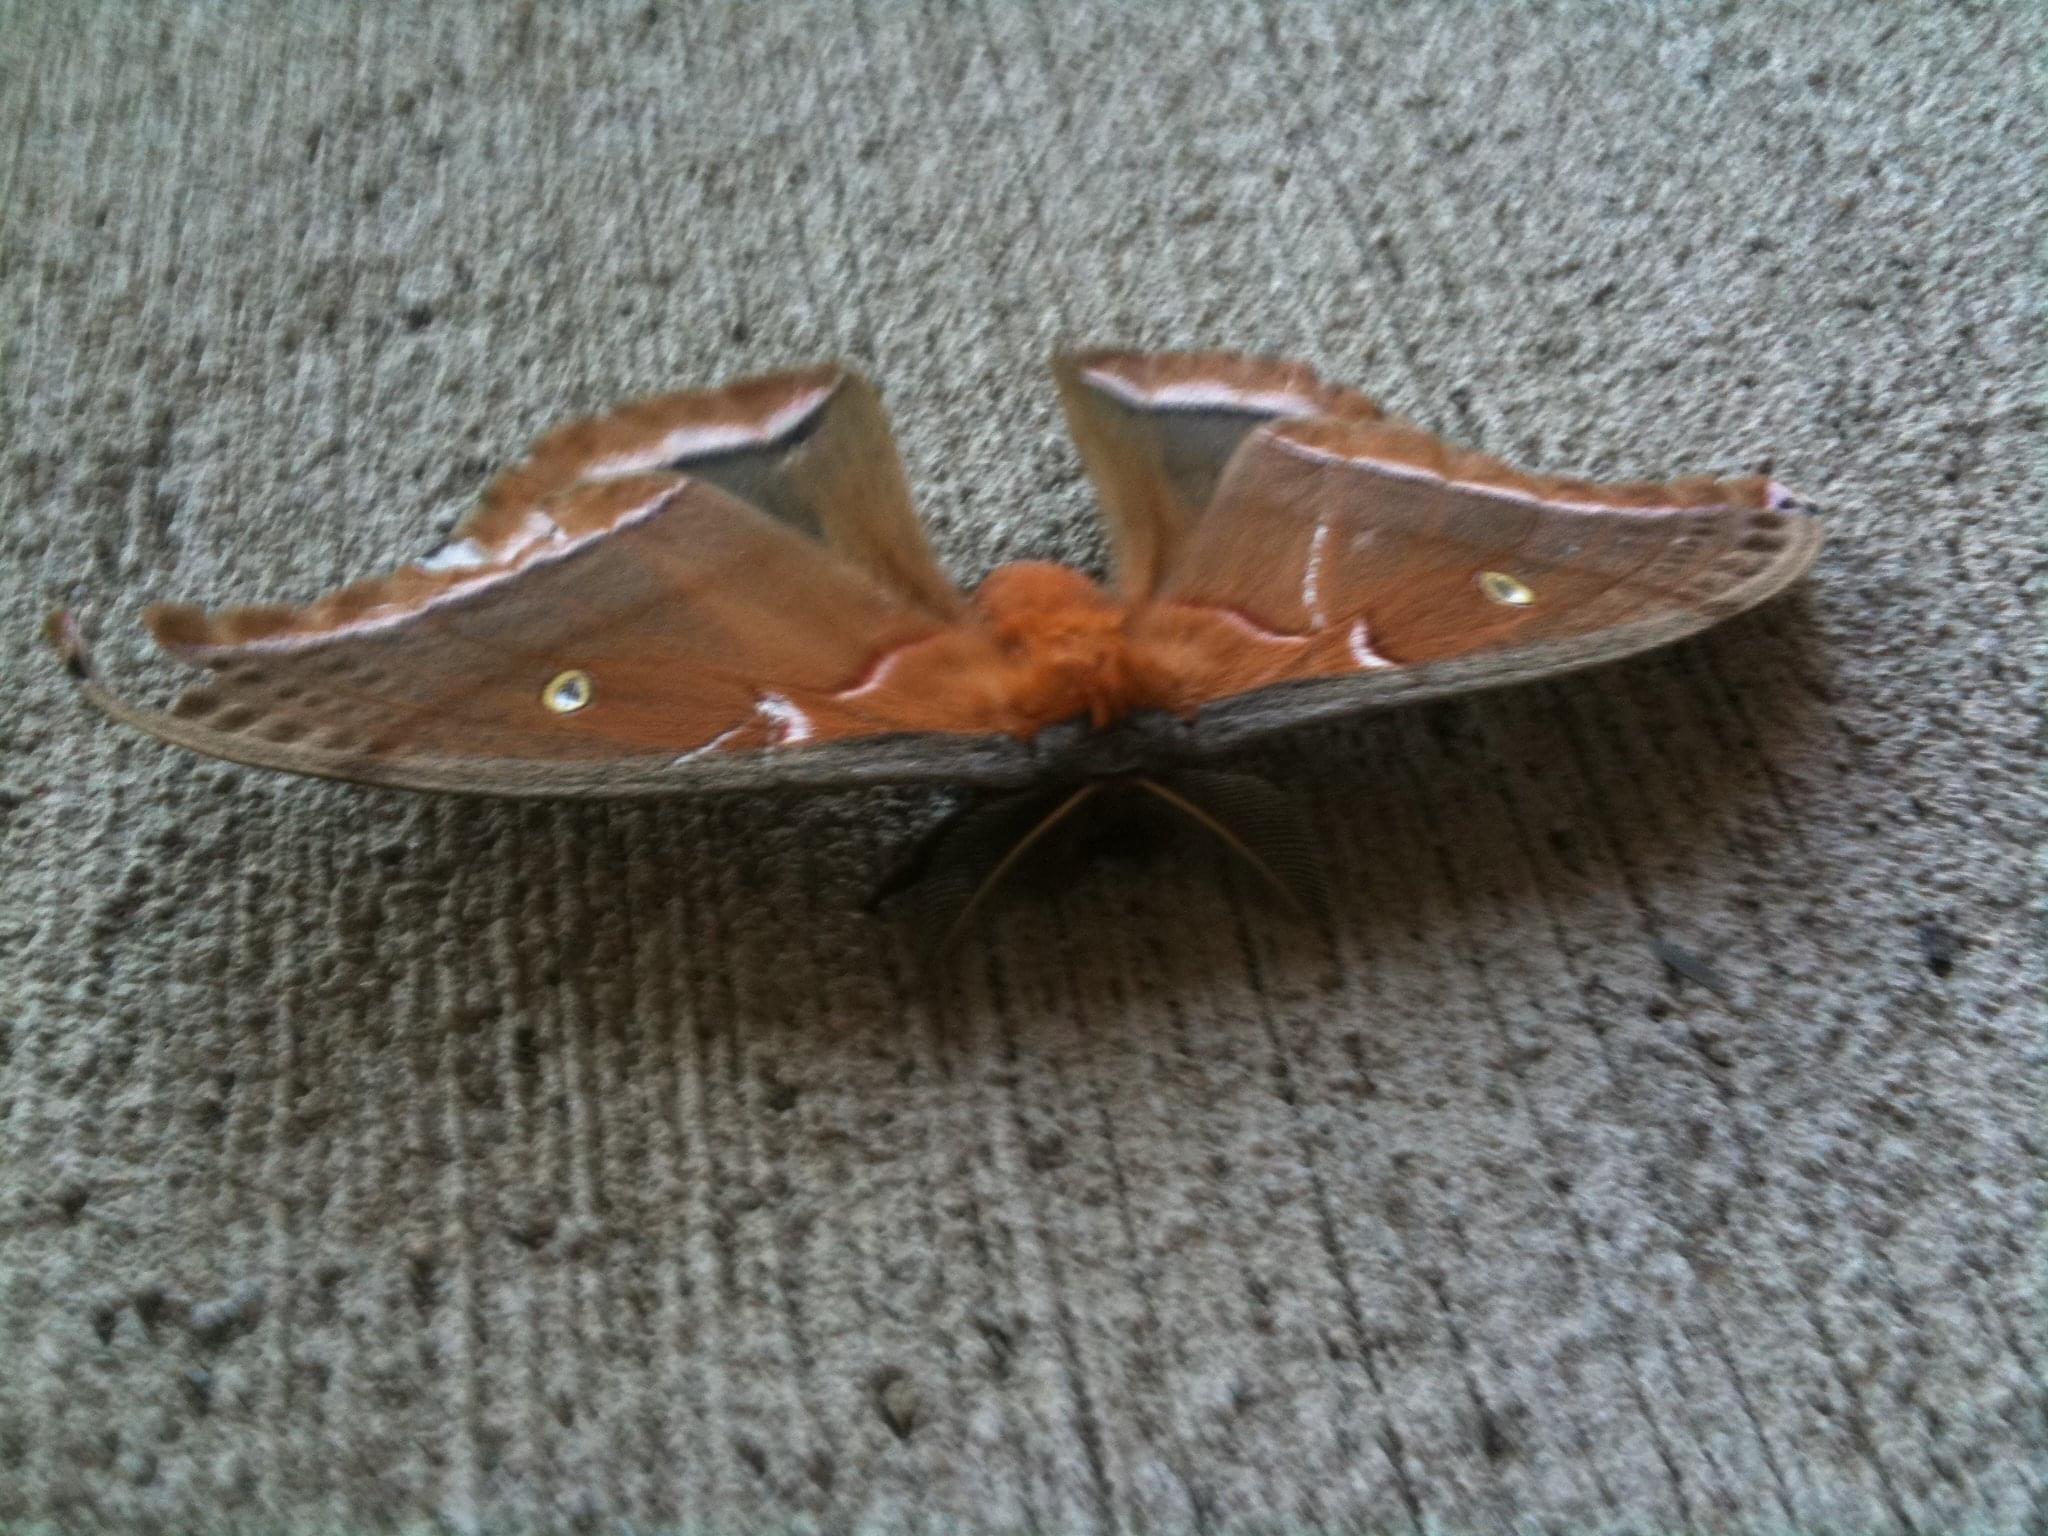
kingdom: Animalia
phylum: Arthropoda
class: Insecta
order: Lepidoptera
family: Saturniidae
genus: Antheraea
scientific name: Antheraea polyphemus
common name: Polyphemus moth
